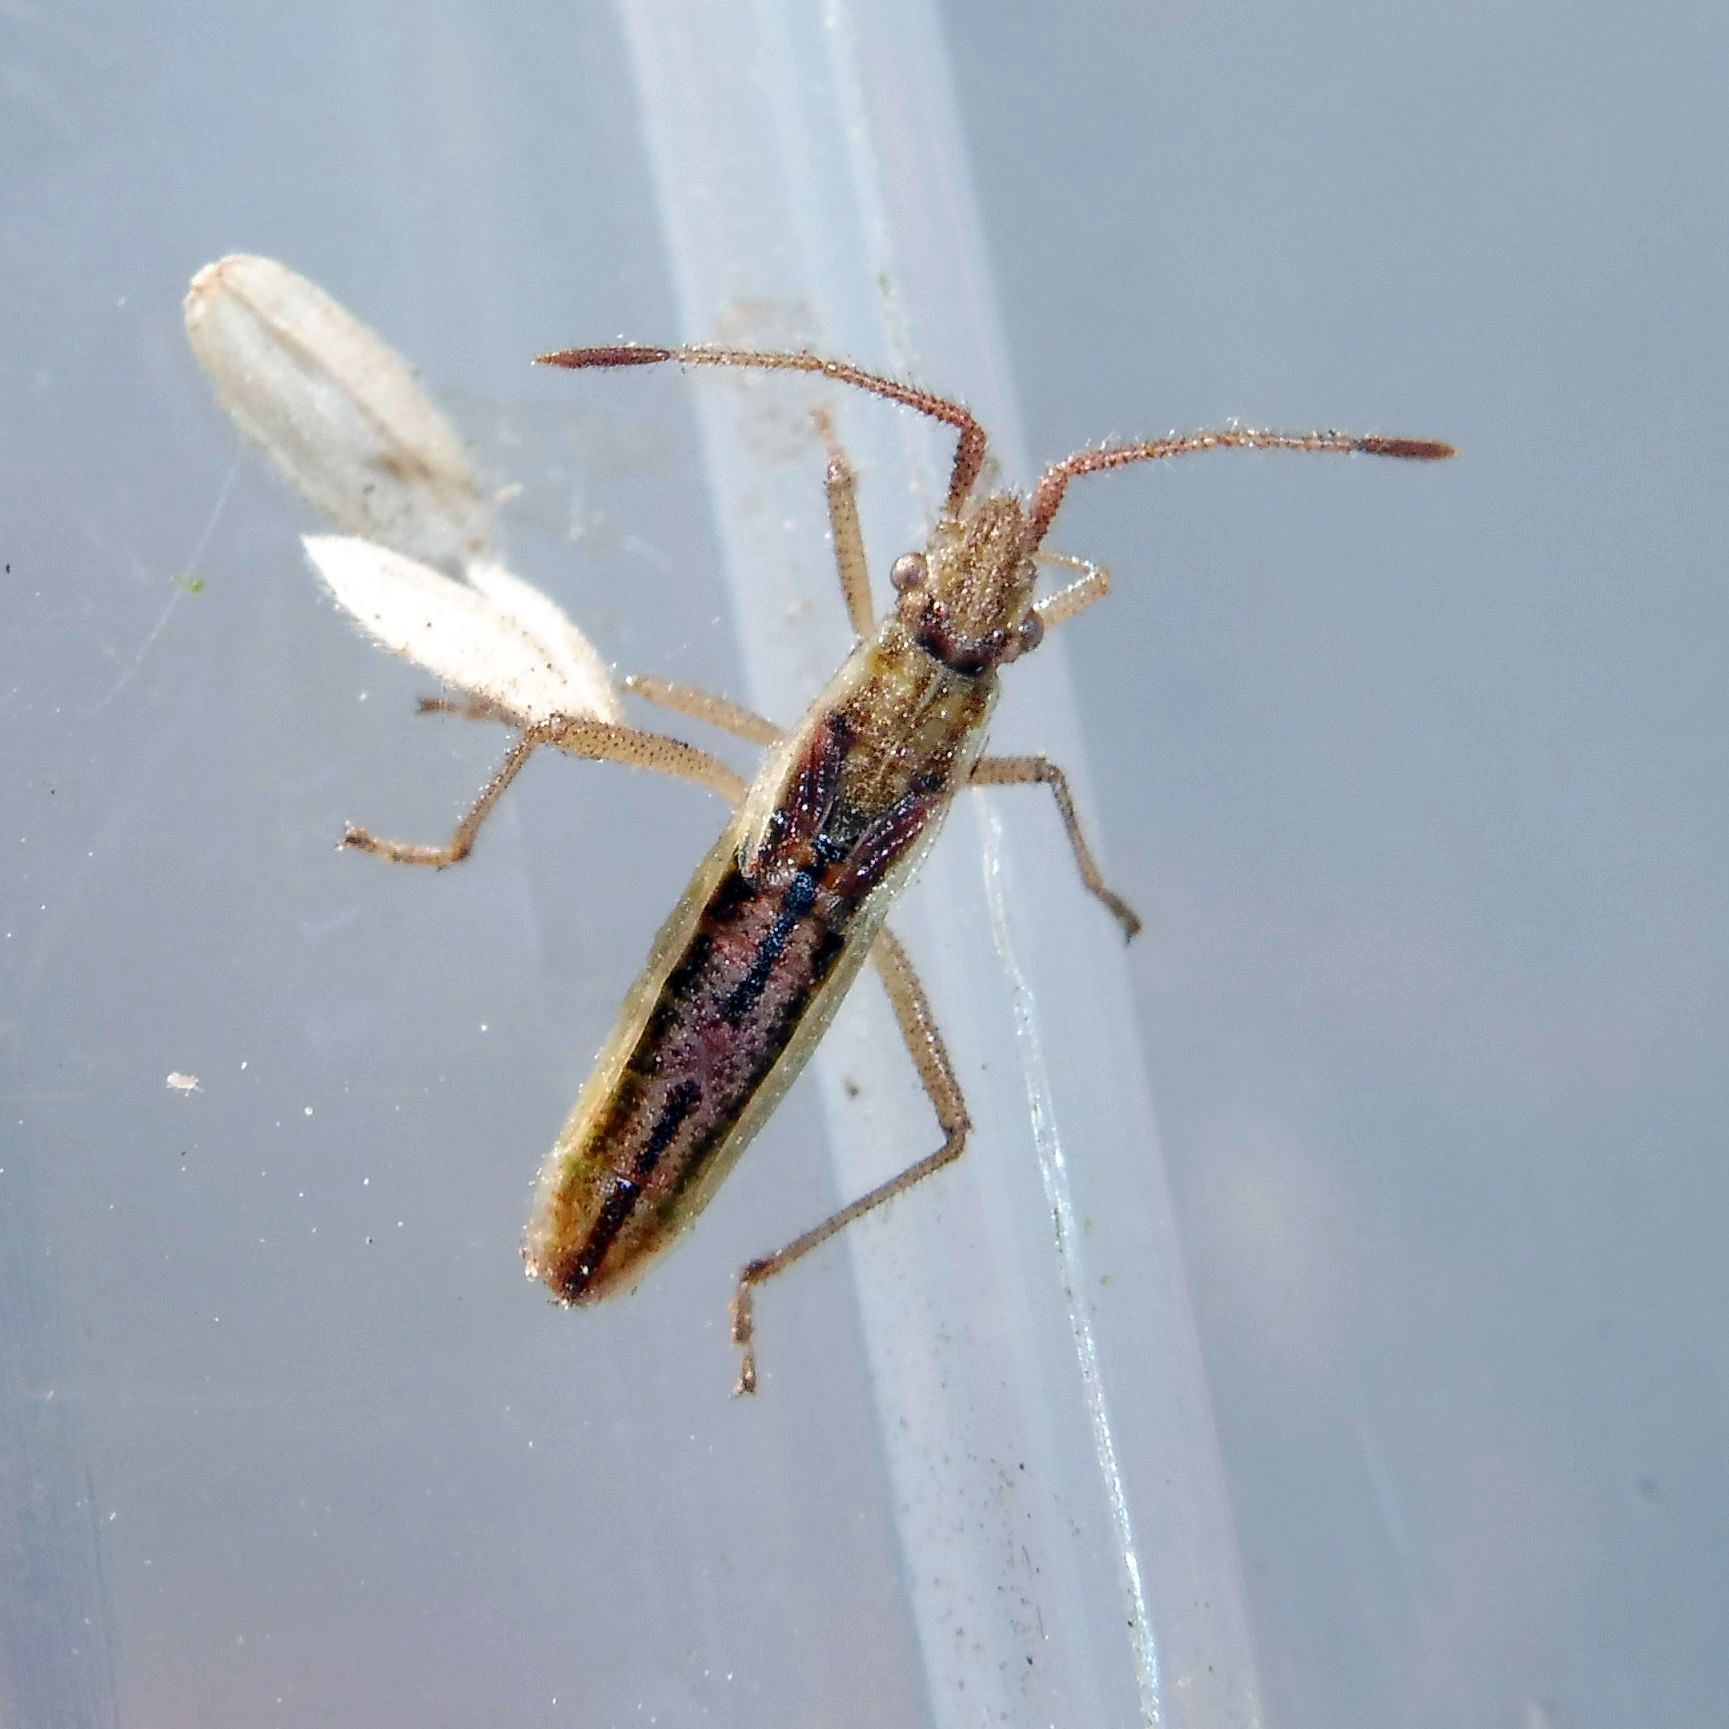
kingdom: Animalia
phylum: Arthropoda
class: Insecta
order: Hemiptera
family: Rhopalidae
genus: Myrmus
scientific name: Myrmus miriformis
